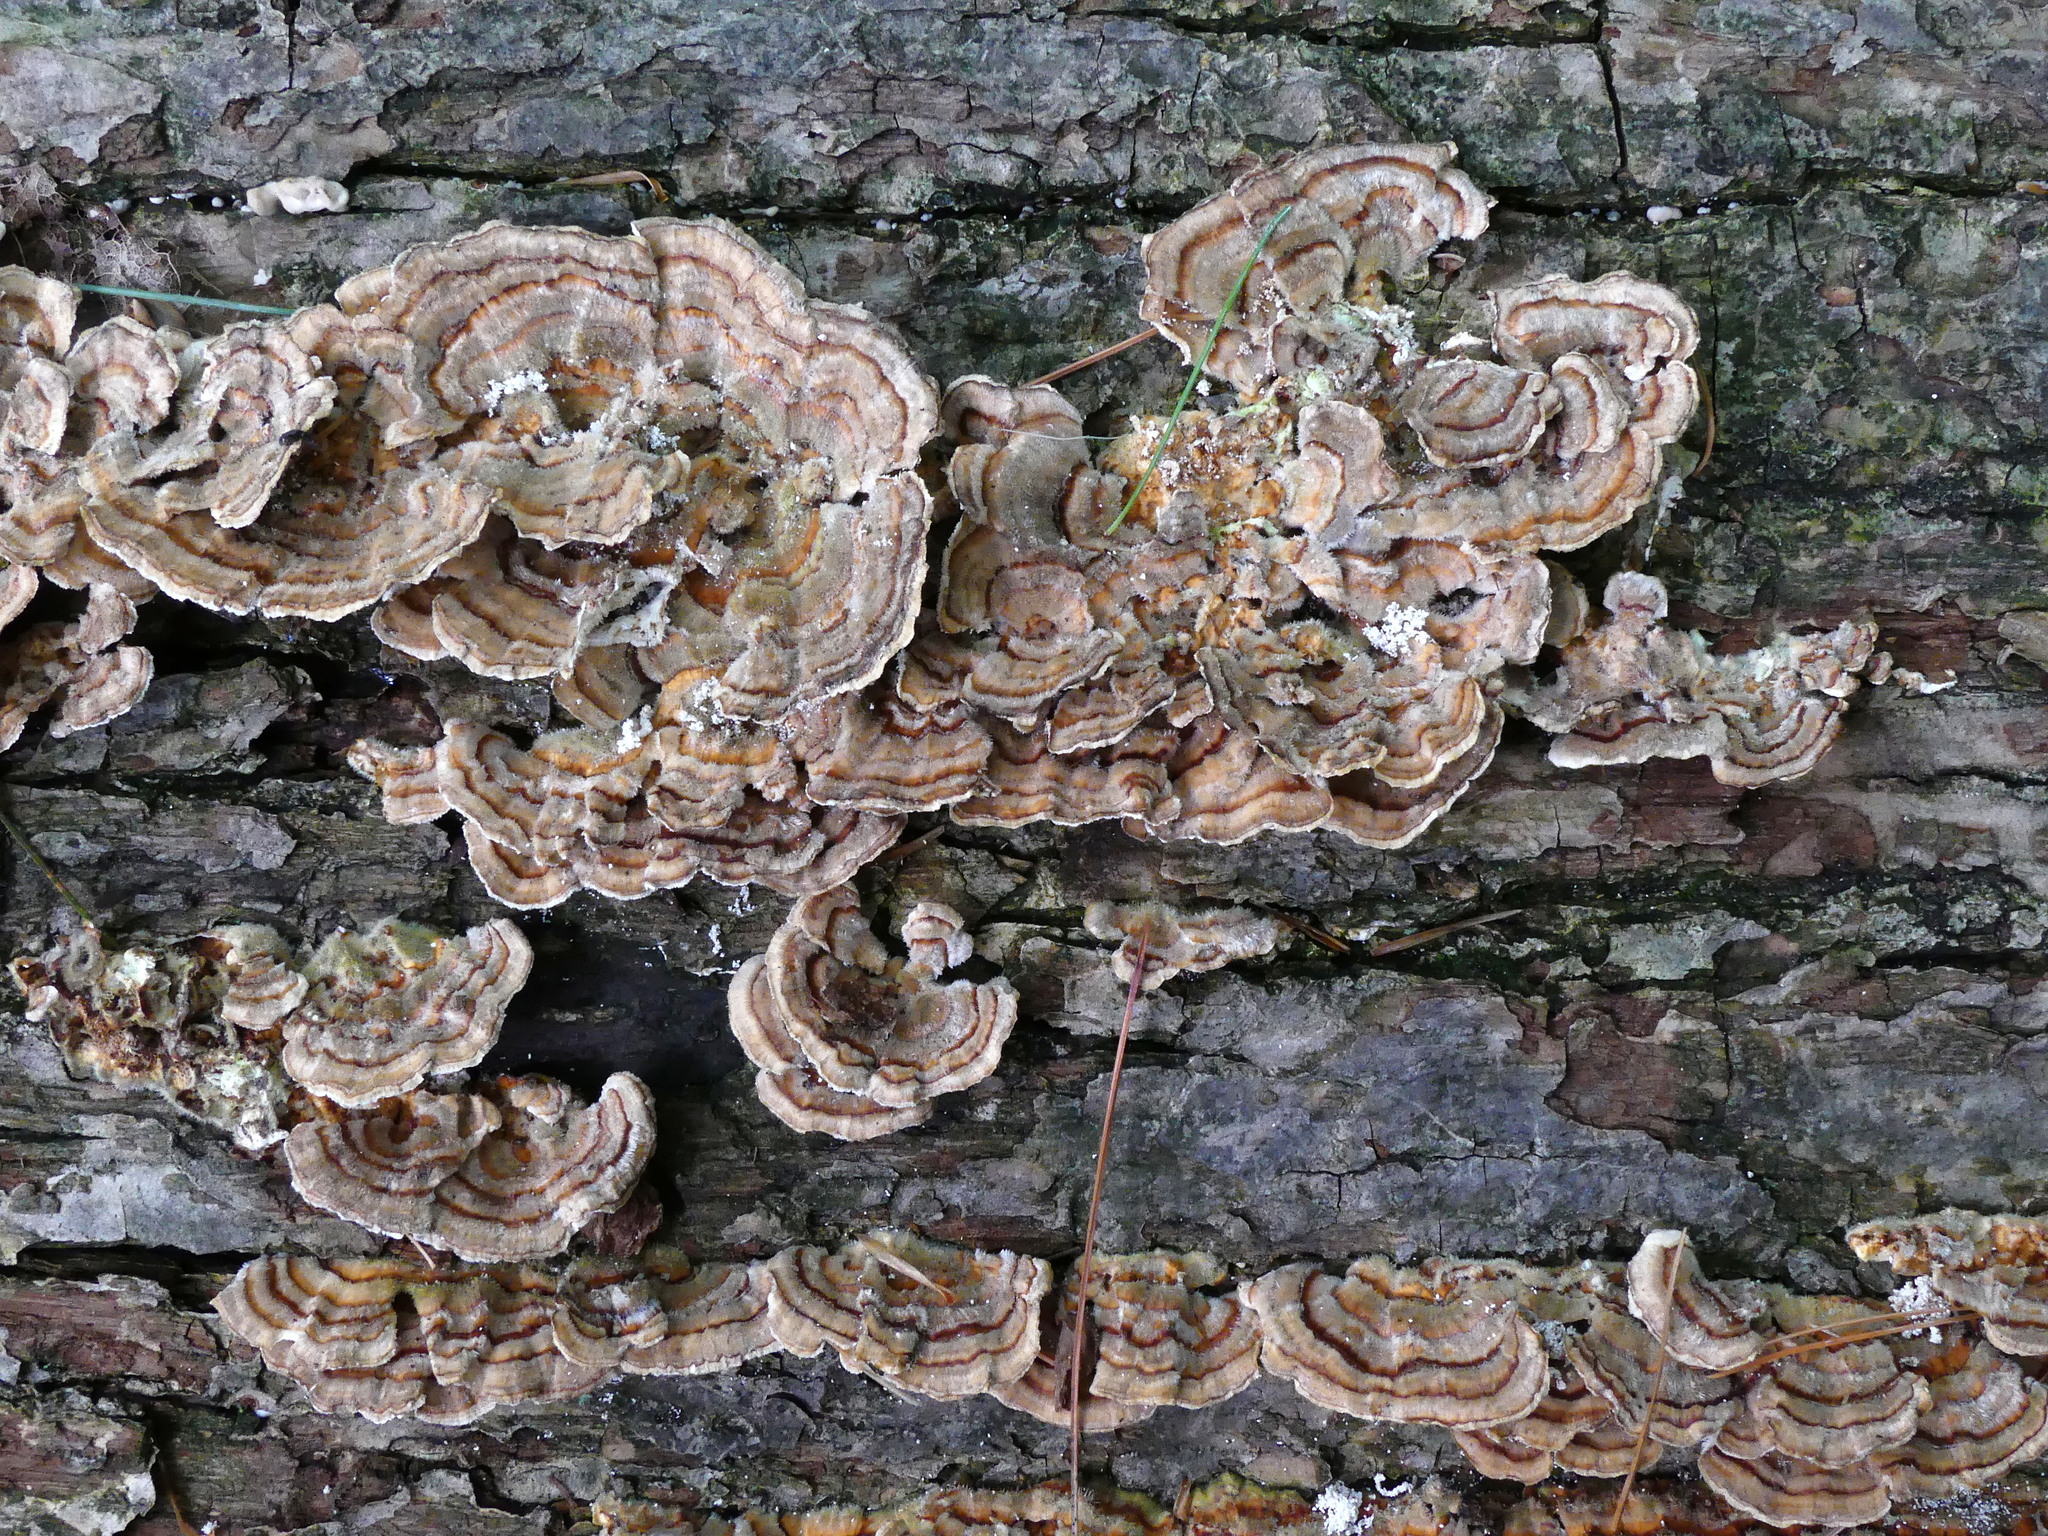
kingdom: Fungi
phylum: Basidiomycota
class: Agaricomycetes
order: Polyporales
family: Polyporaceae
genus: Trametes
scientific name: Trametes versicolor
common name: Turkeytail
